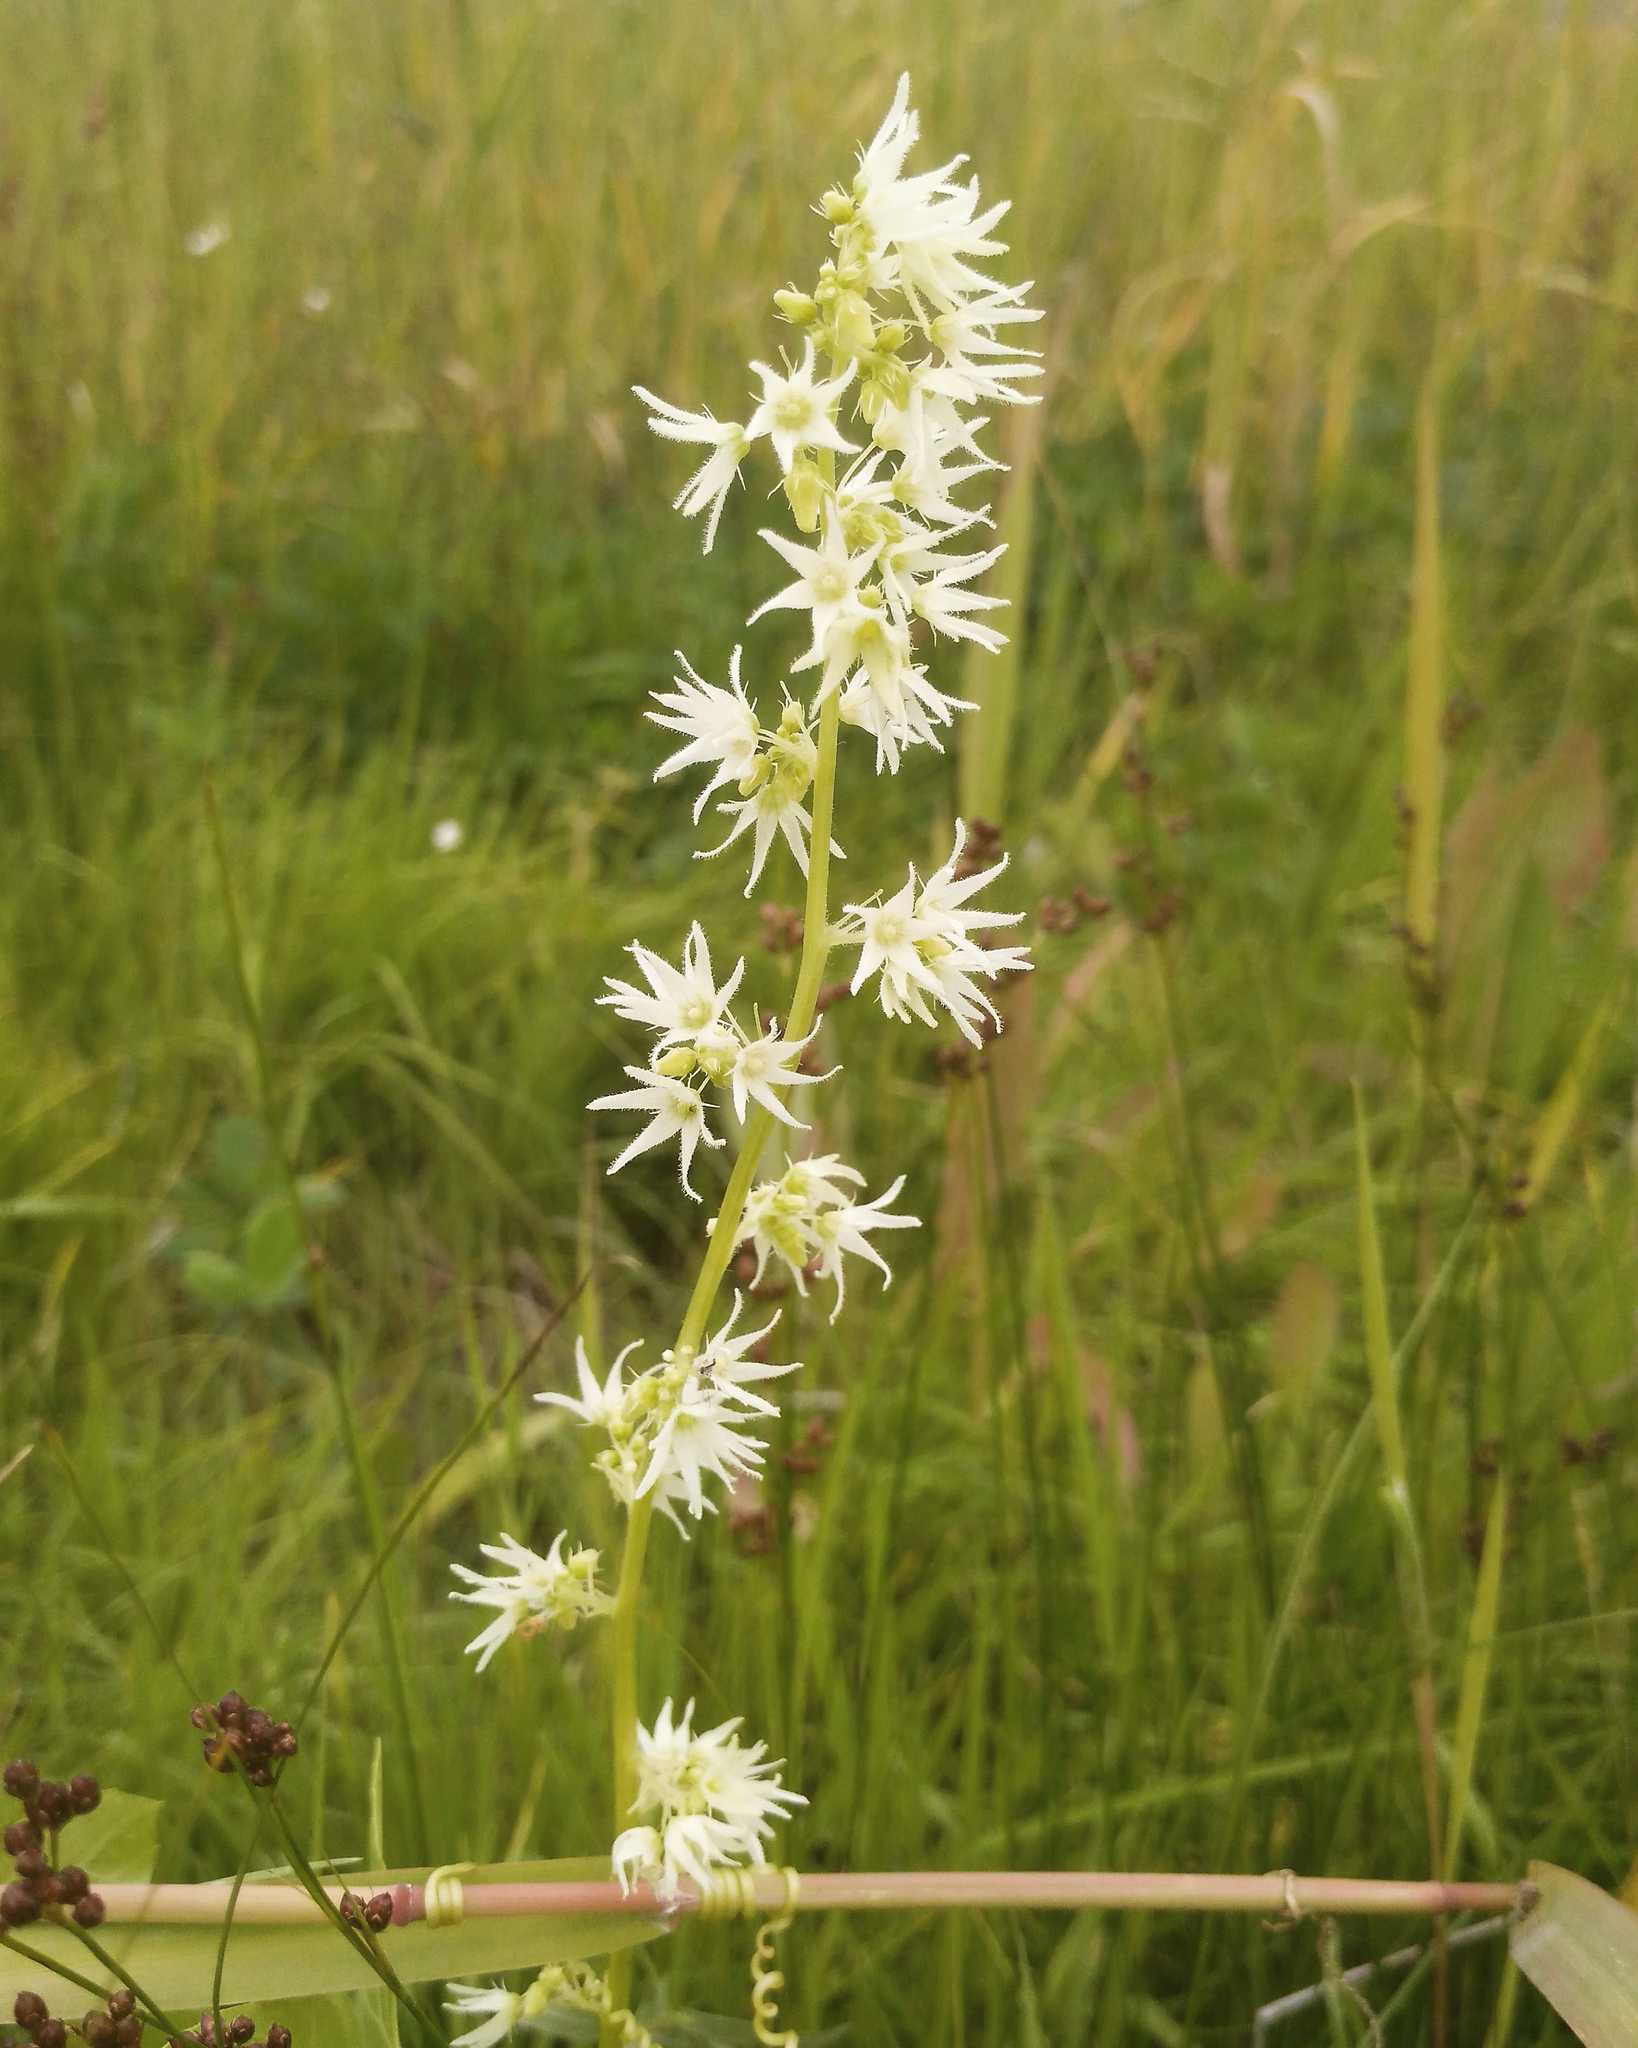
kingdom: Plantae
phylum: Tracheophyta
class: Magnoliopsida
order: Cucurbitales
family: Cucurbitaceae
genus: Echinocystis
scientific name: Echinocystis lobata
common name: Wild cucumber
